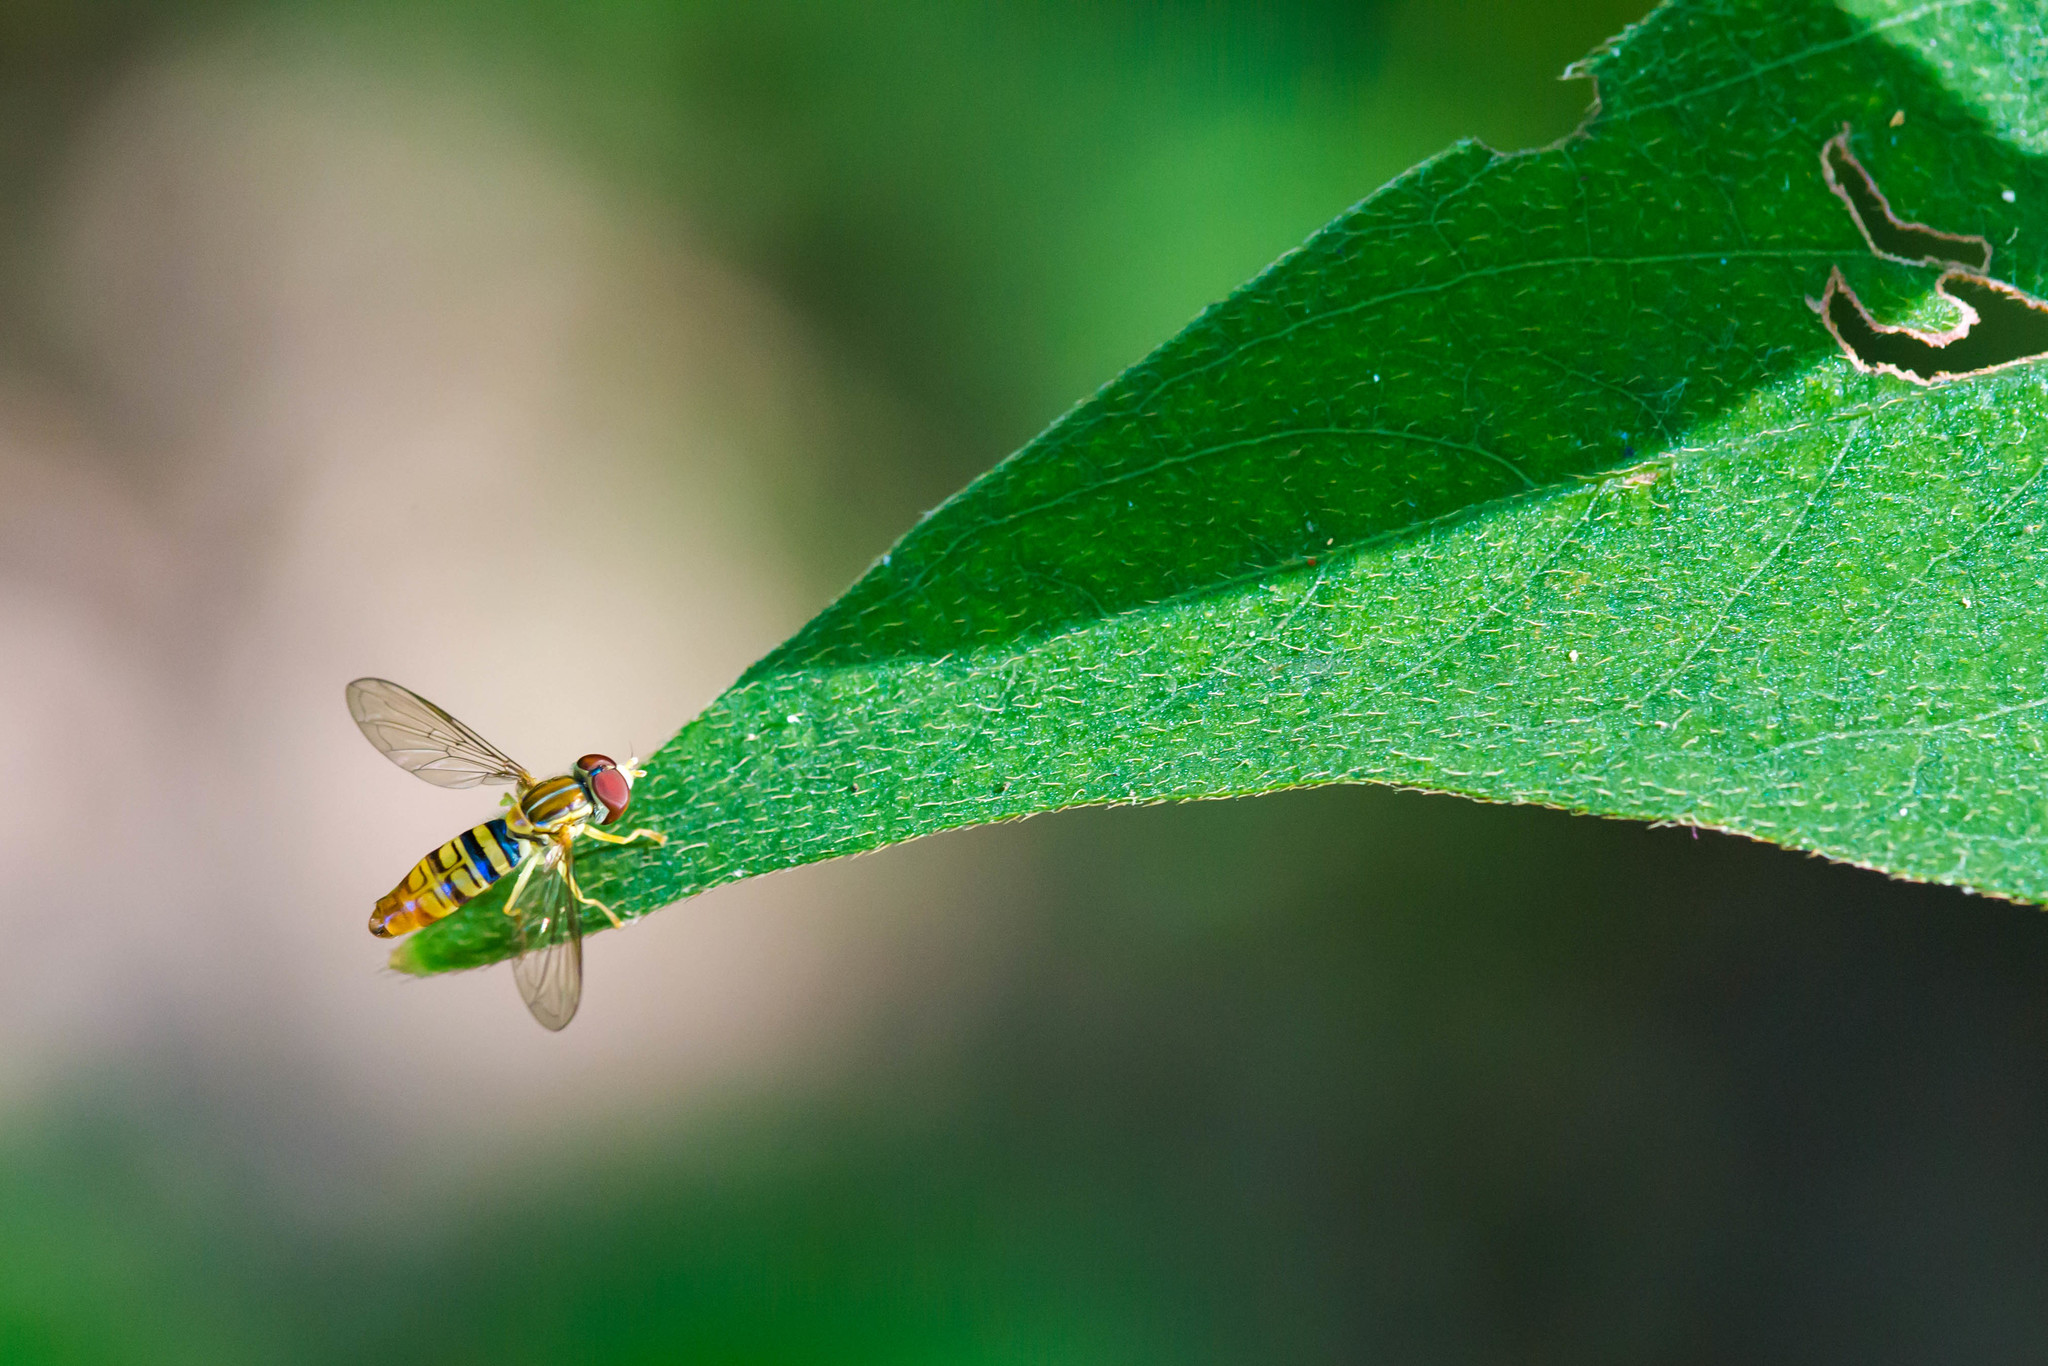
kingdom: Animalia
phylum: Arthropoda
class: Insecta
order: Diptera
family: Syrphidae
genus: Toxomerus
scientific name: Toxomerus politus
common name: Maize calligrapher
